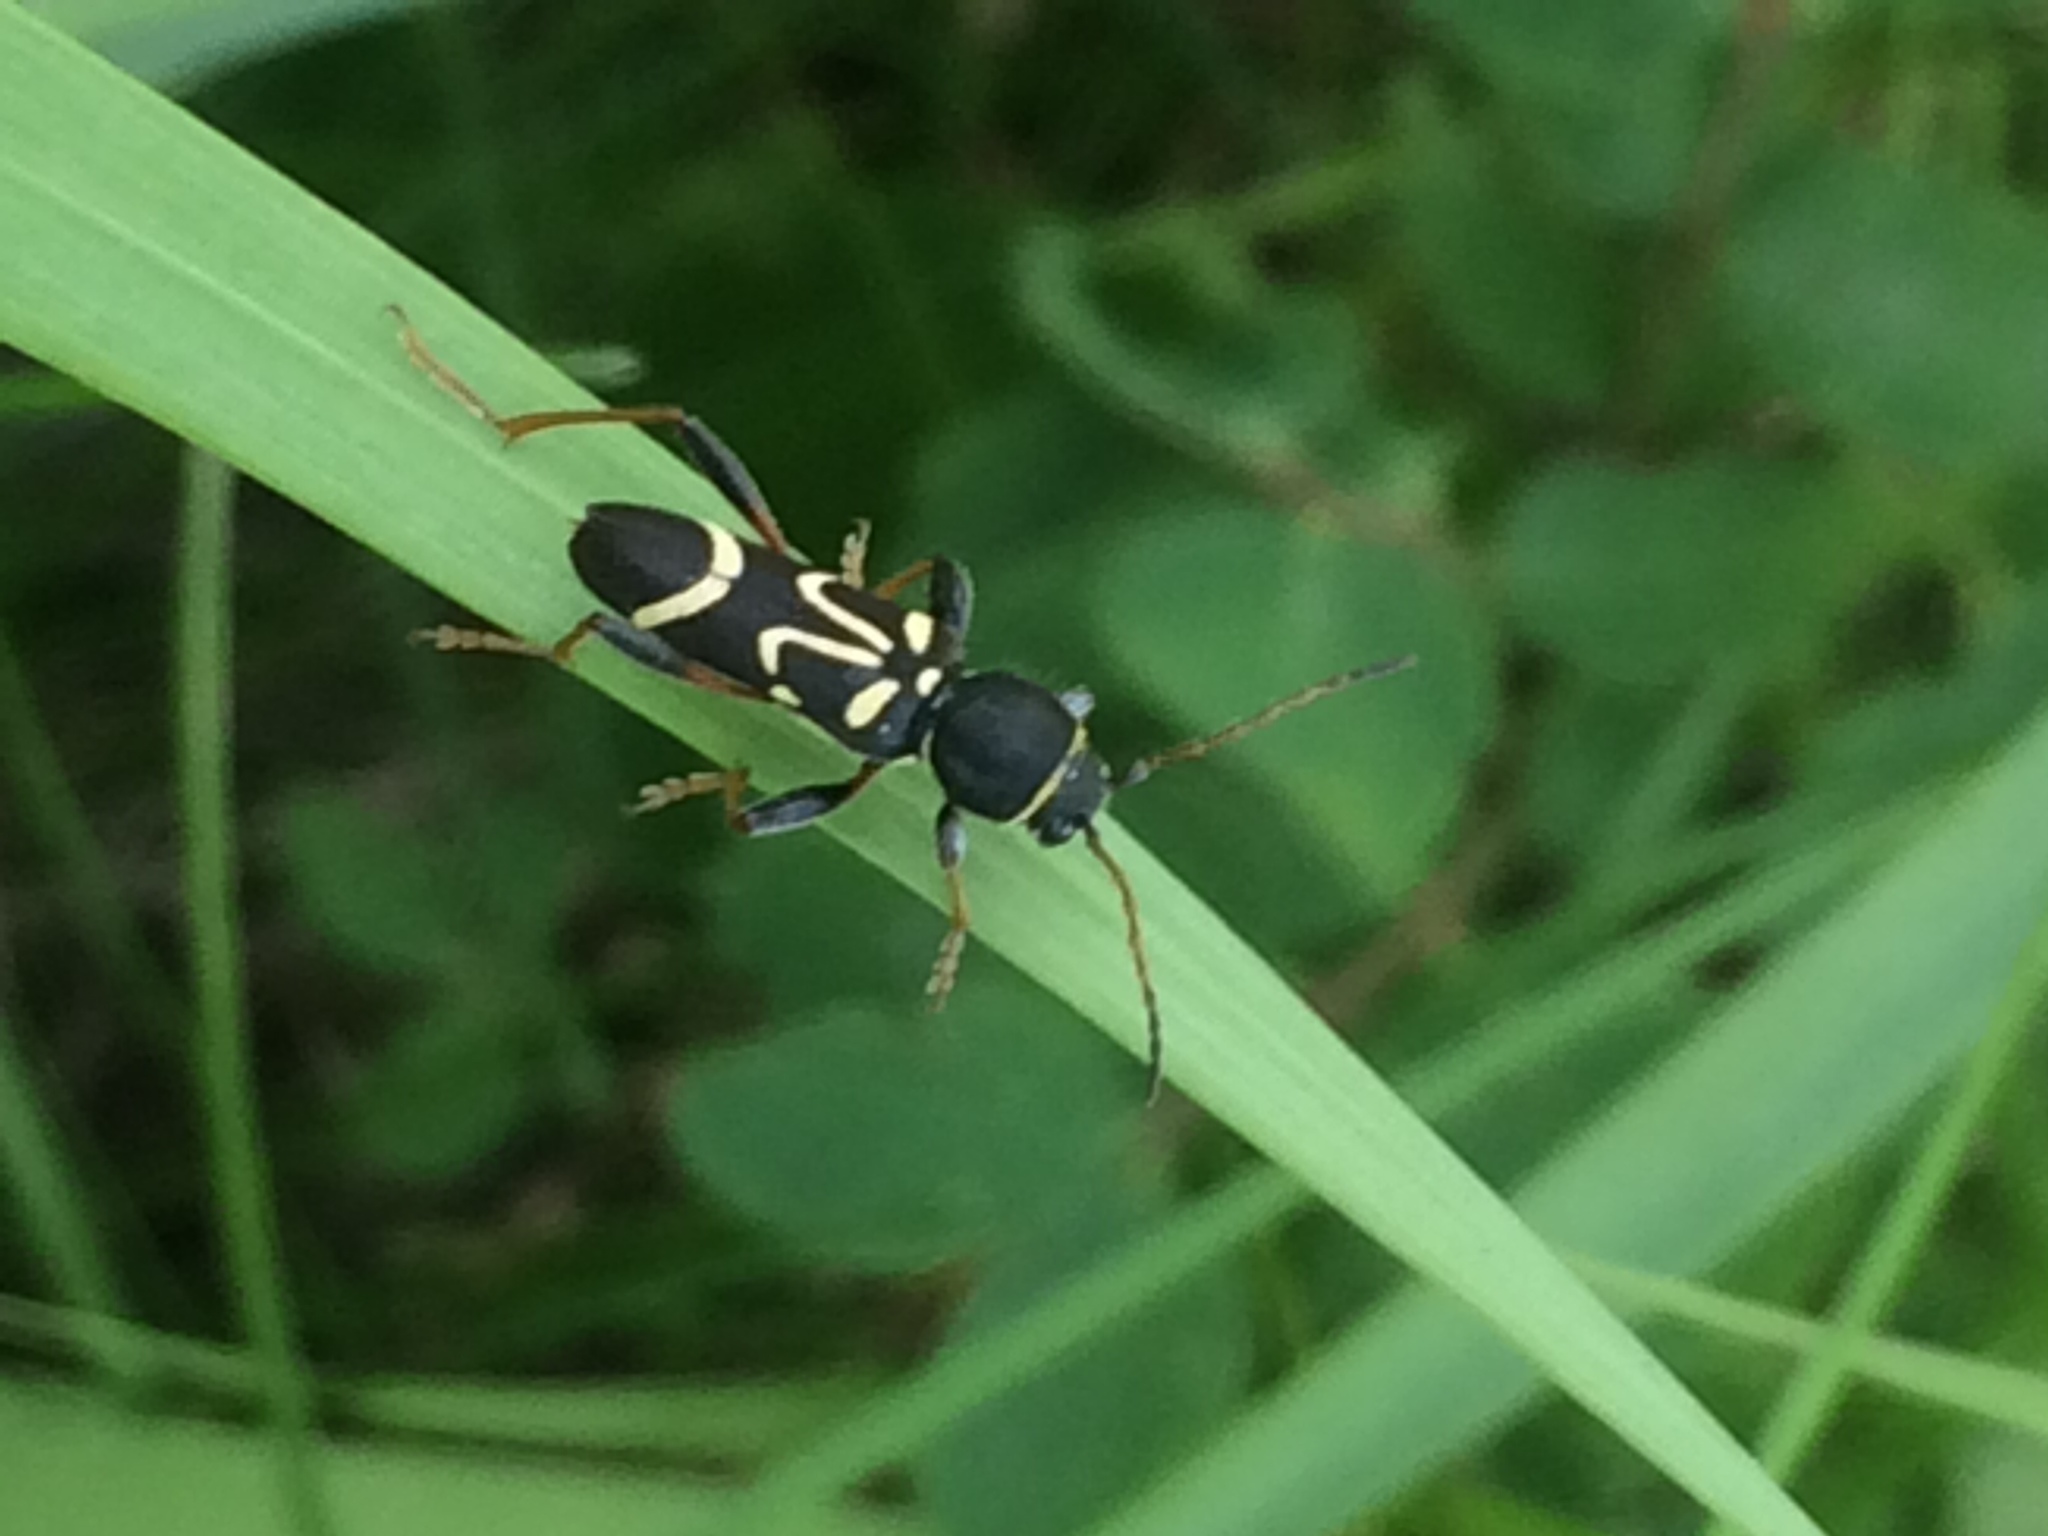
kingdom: Animalia
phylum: Arthropoda
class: Insecta
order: Coleoptera
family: Cerambycidae
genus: Clytus
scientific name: Clytus ruricola
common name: Round-necked longhorn beetle
